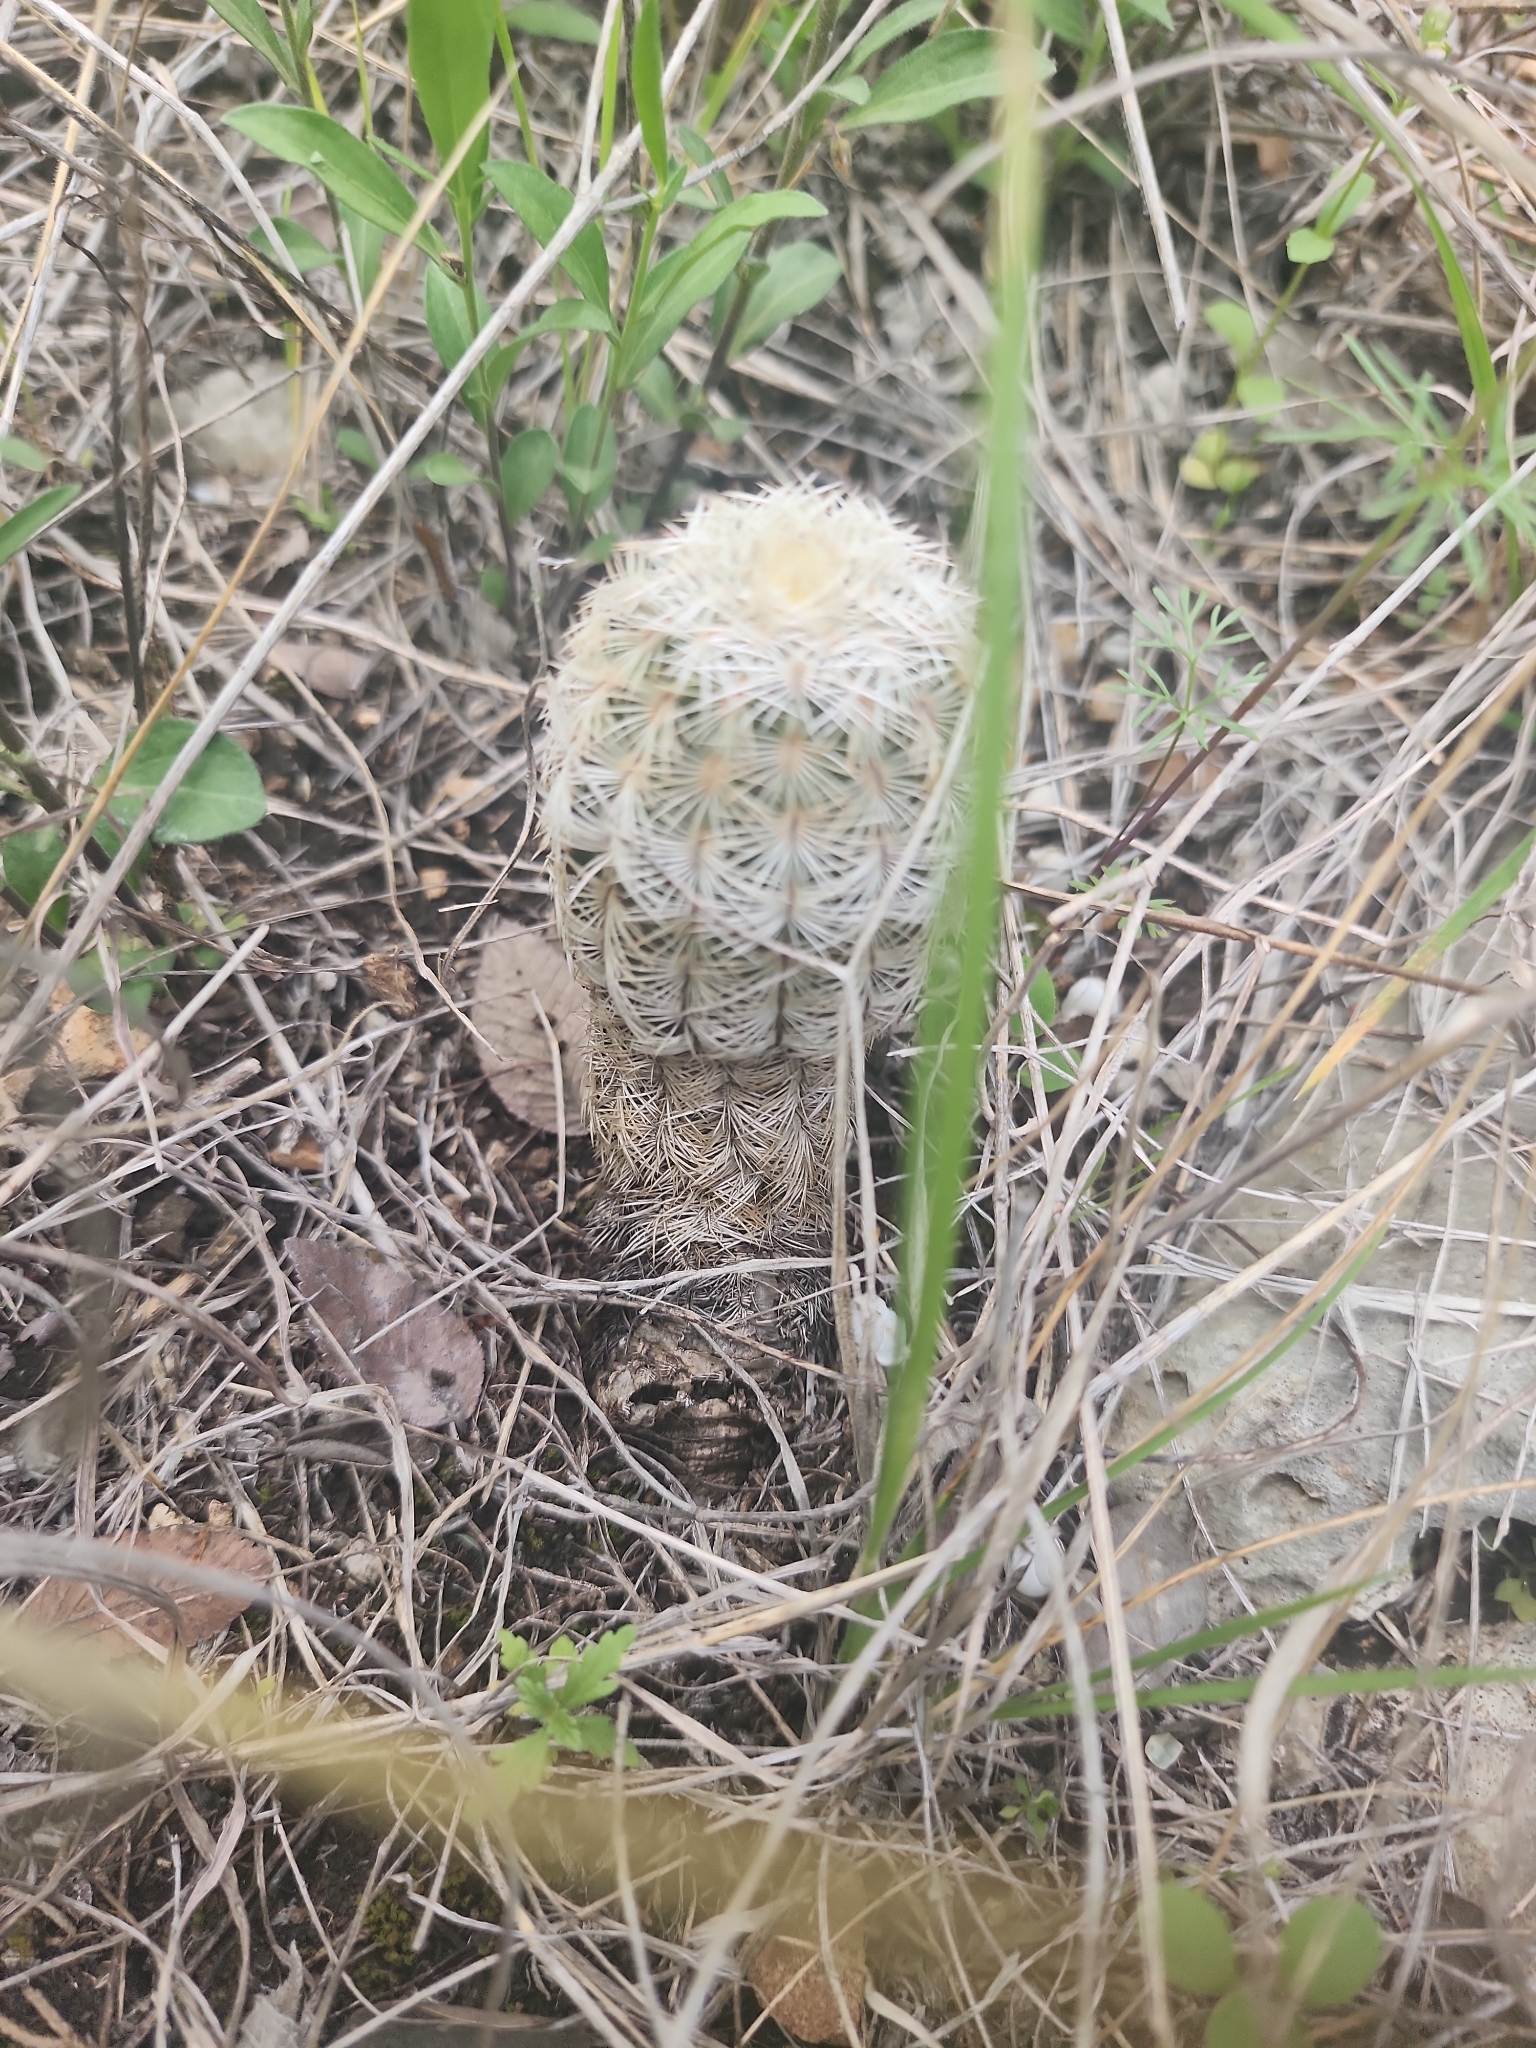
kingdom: Plantae
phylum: Tracheophyta
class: Magnoliopsida
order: Caryophyllales
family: Cactaceae
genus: Echinocereus
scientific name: Echinocereus reichenbachii
